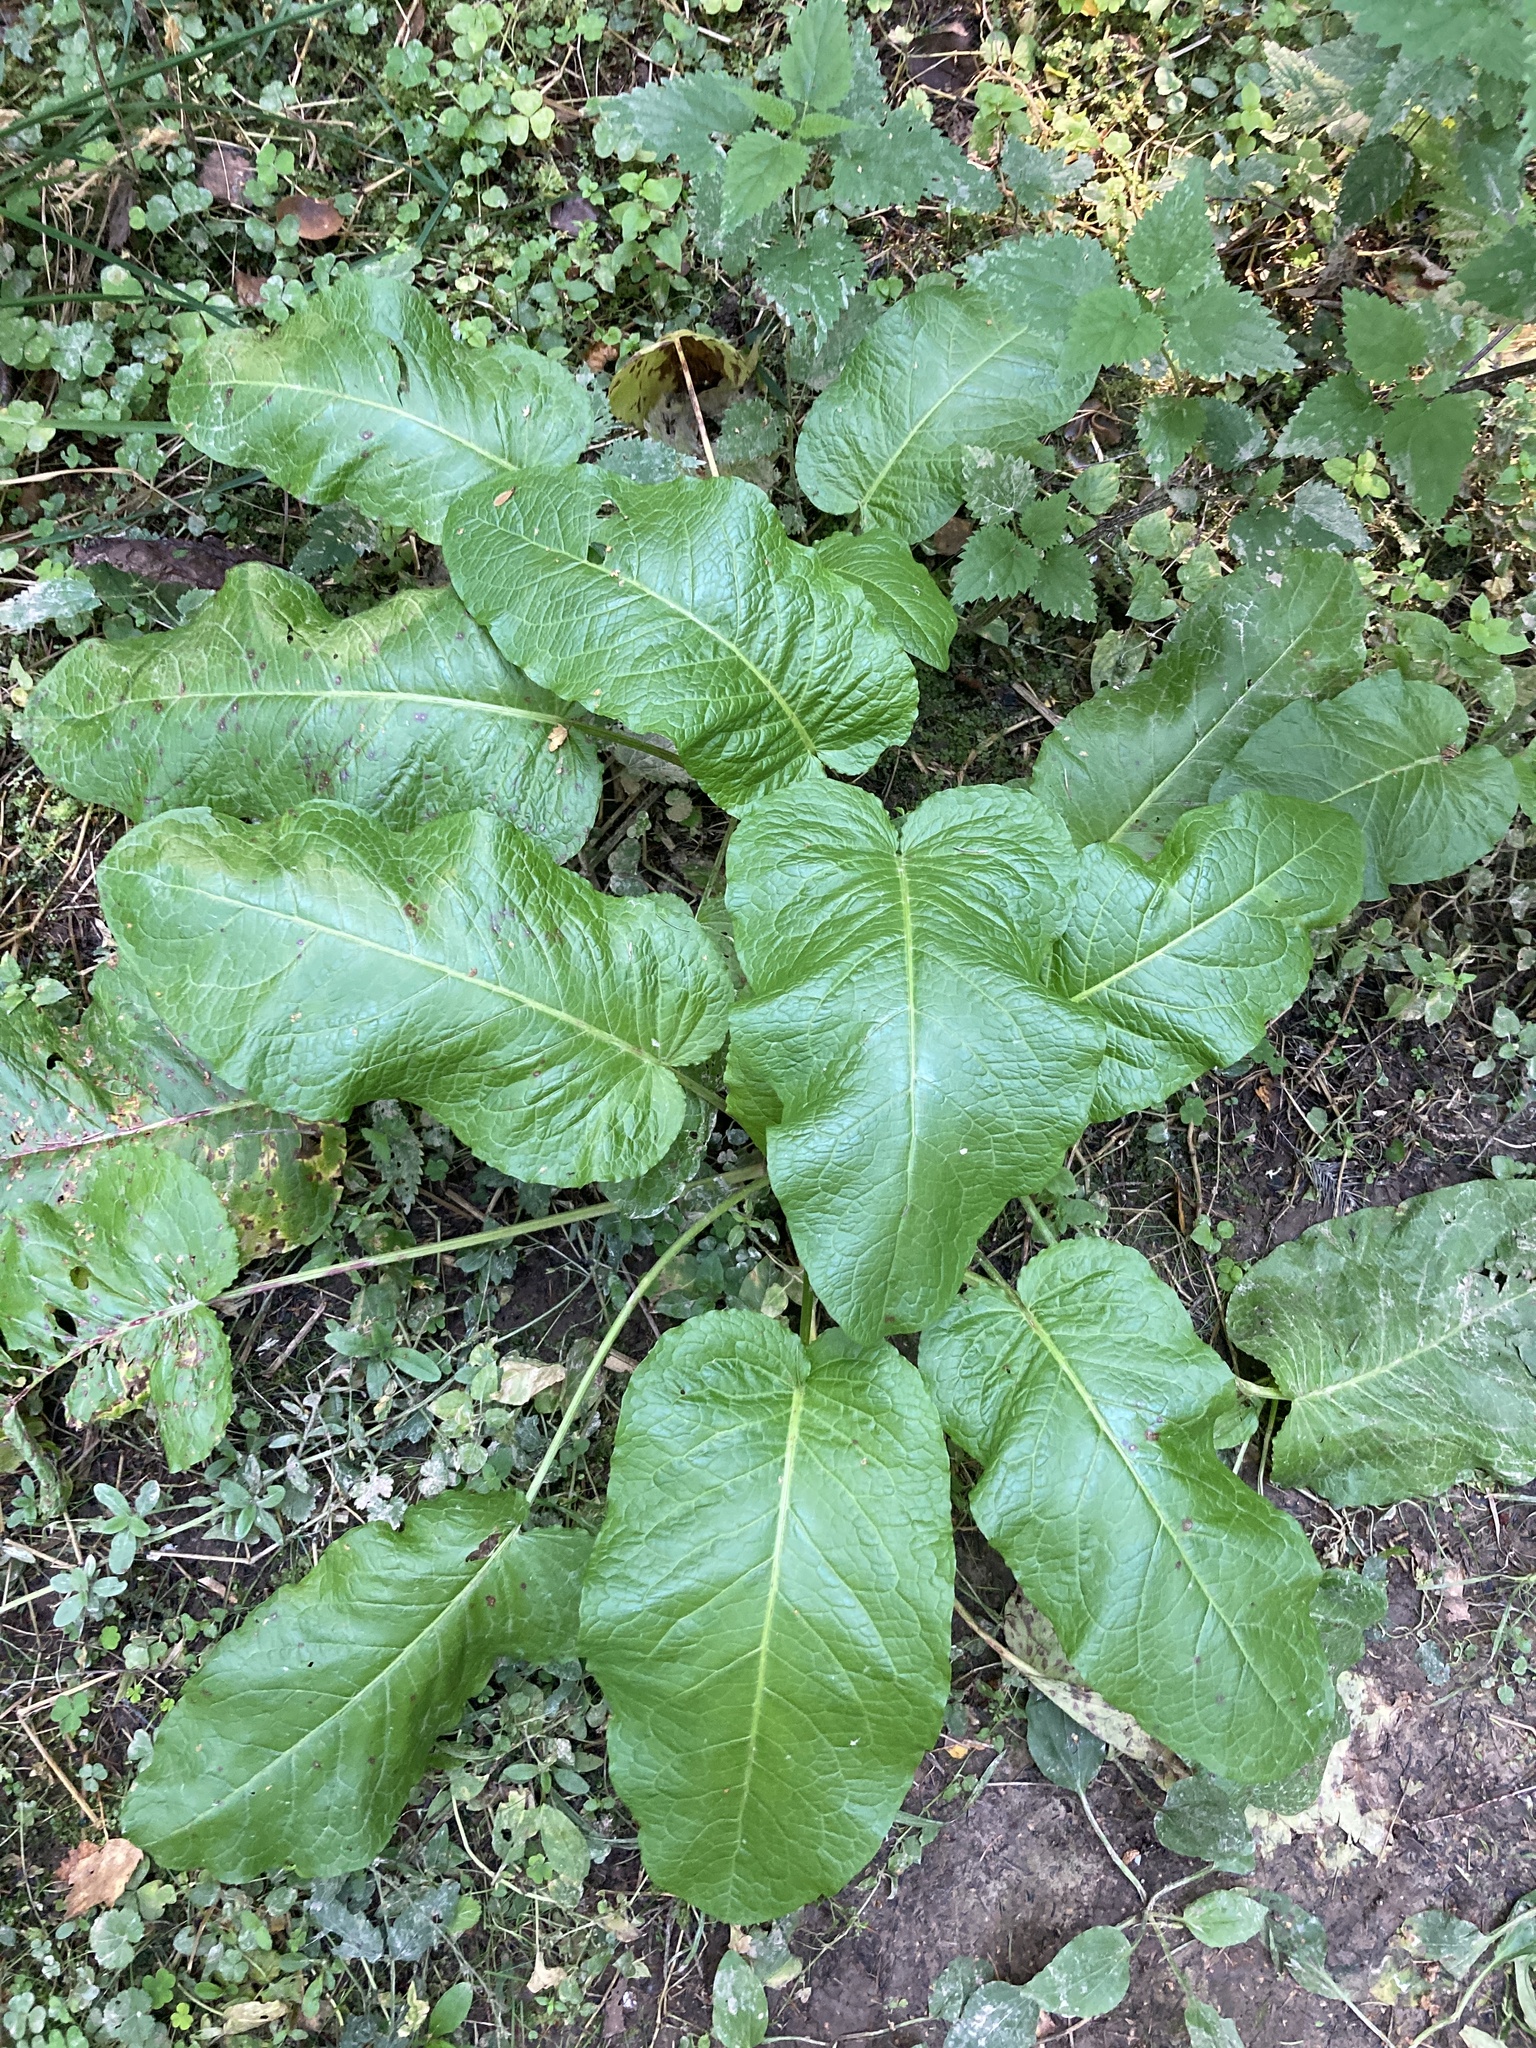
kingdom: Plantae
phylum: Tracheophyta
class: Magnoliopsida
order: Caryophyllales
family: Polygonaceae
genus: Rumex
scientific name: Rumex obtusifolius
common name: Bitter dock
